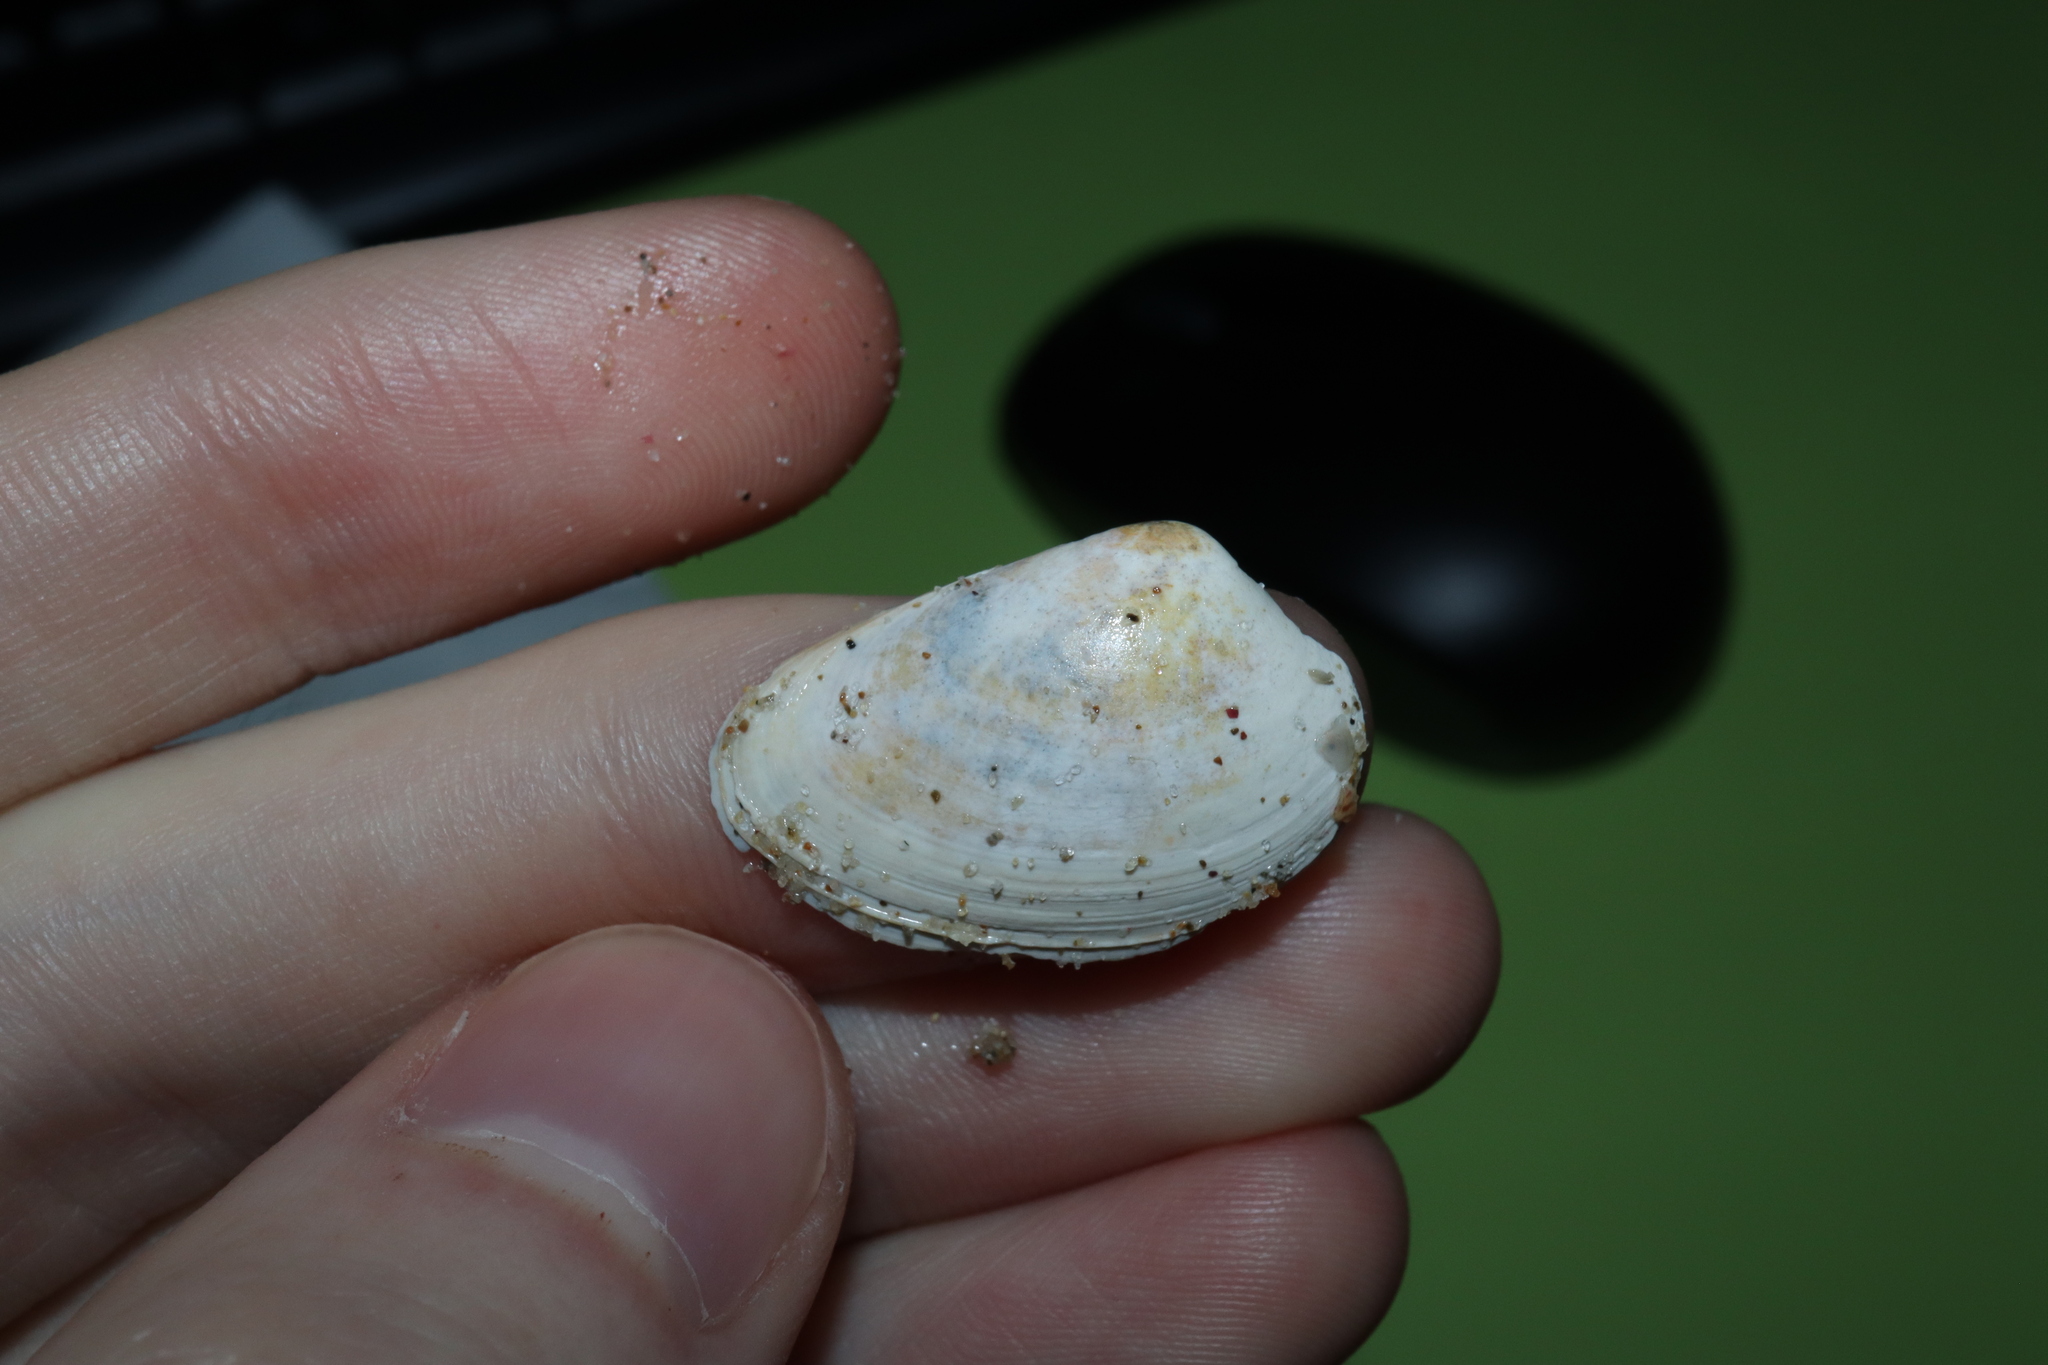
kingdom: Animalia
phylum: Mollusca
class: Bivalvia
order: Venerida
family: Veneridae
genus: Eumarcia
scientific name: Eumarcia fumigata
